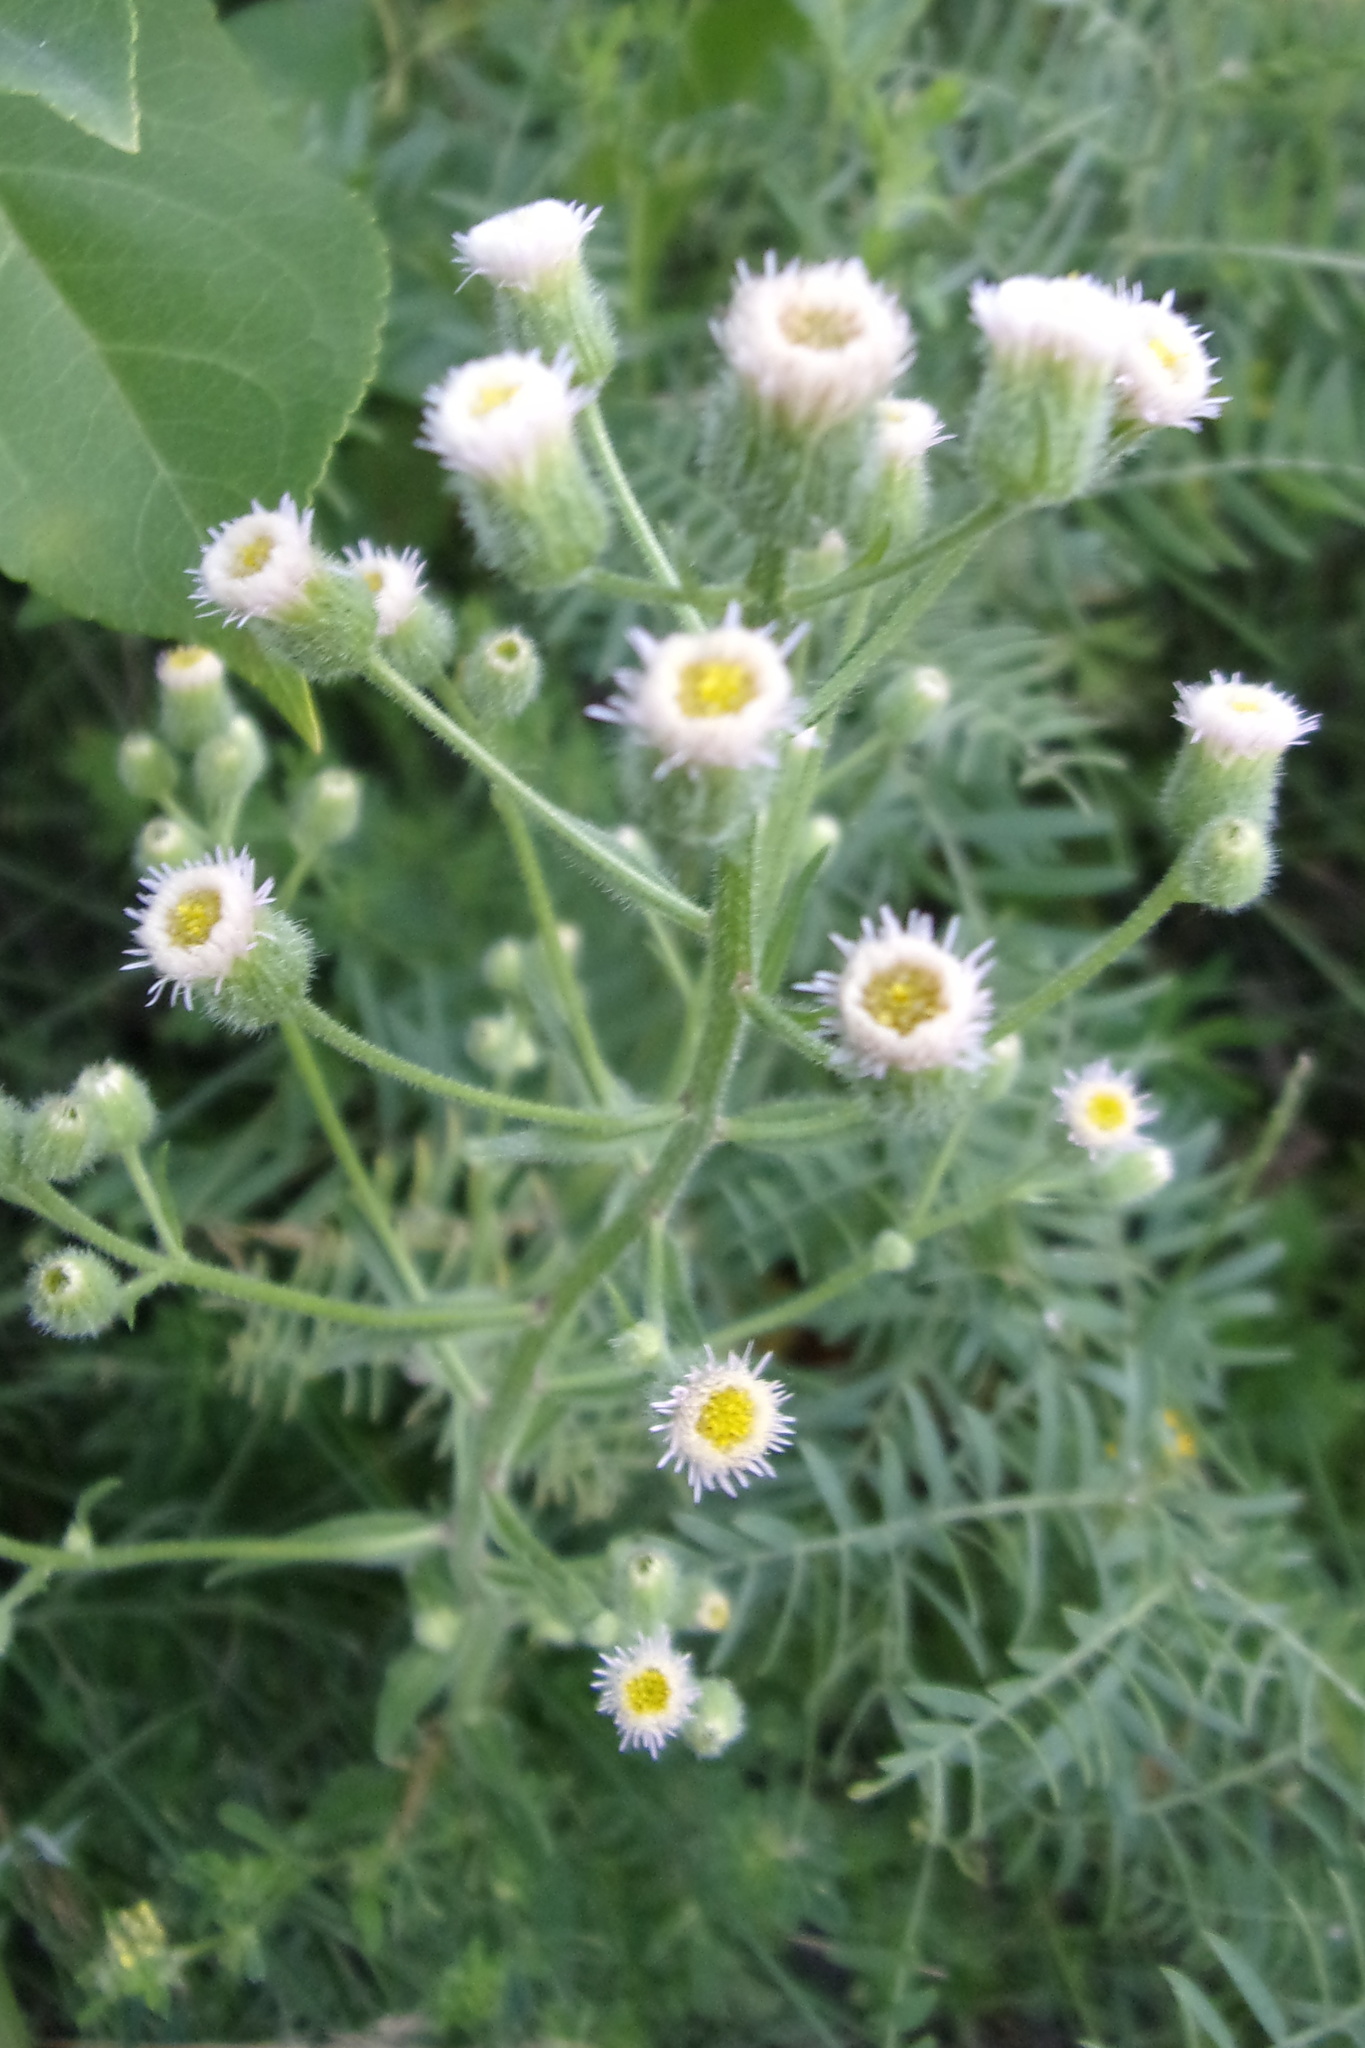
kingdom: Plantae
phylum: Tracheophyta
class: Magnoliopsida
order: Asterales
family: Asteraceae
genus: Erigeron
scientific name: Erigeron acris
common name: Blue fleabane
